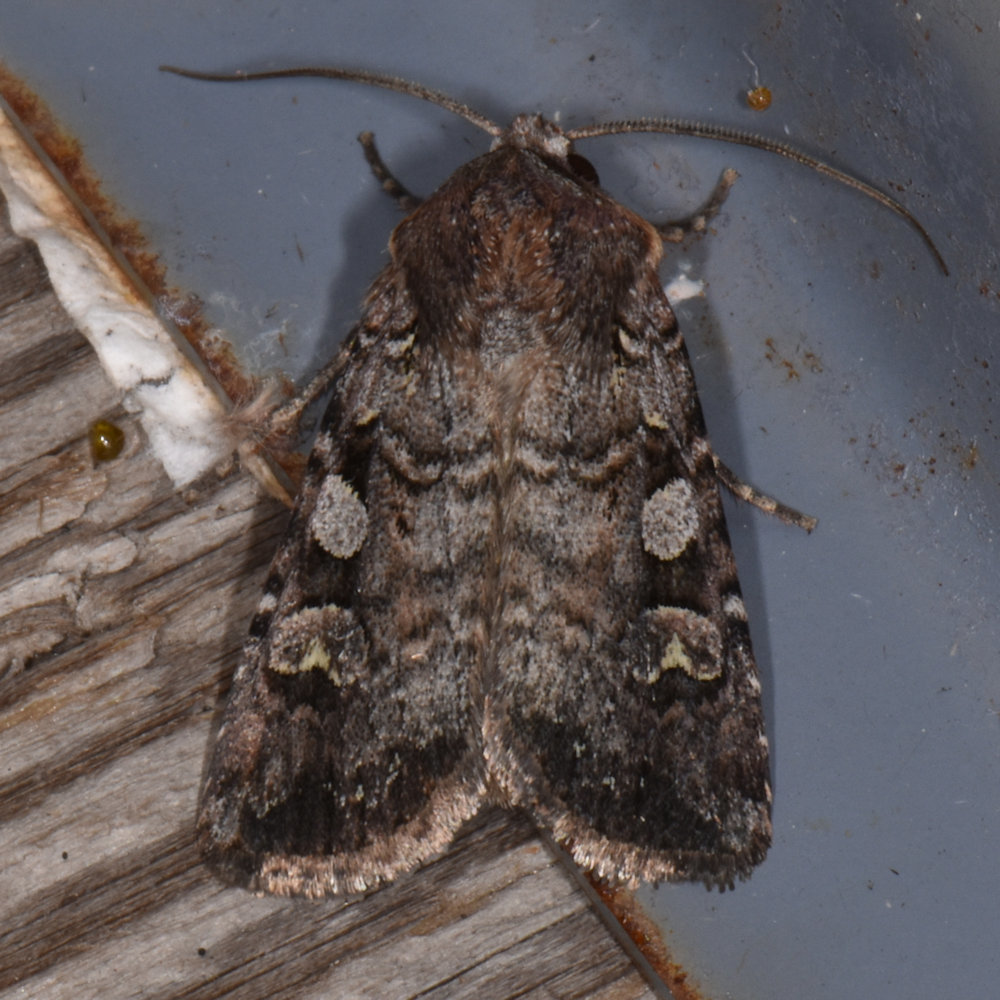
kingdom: Animalia
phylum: Arthropoda
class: Insecta
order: Lepidoptera
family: Noctuidae
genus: Euxoa
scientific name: Euxoa tessellata
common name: Striped cutworm
